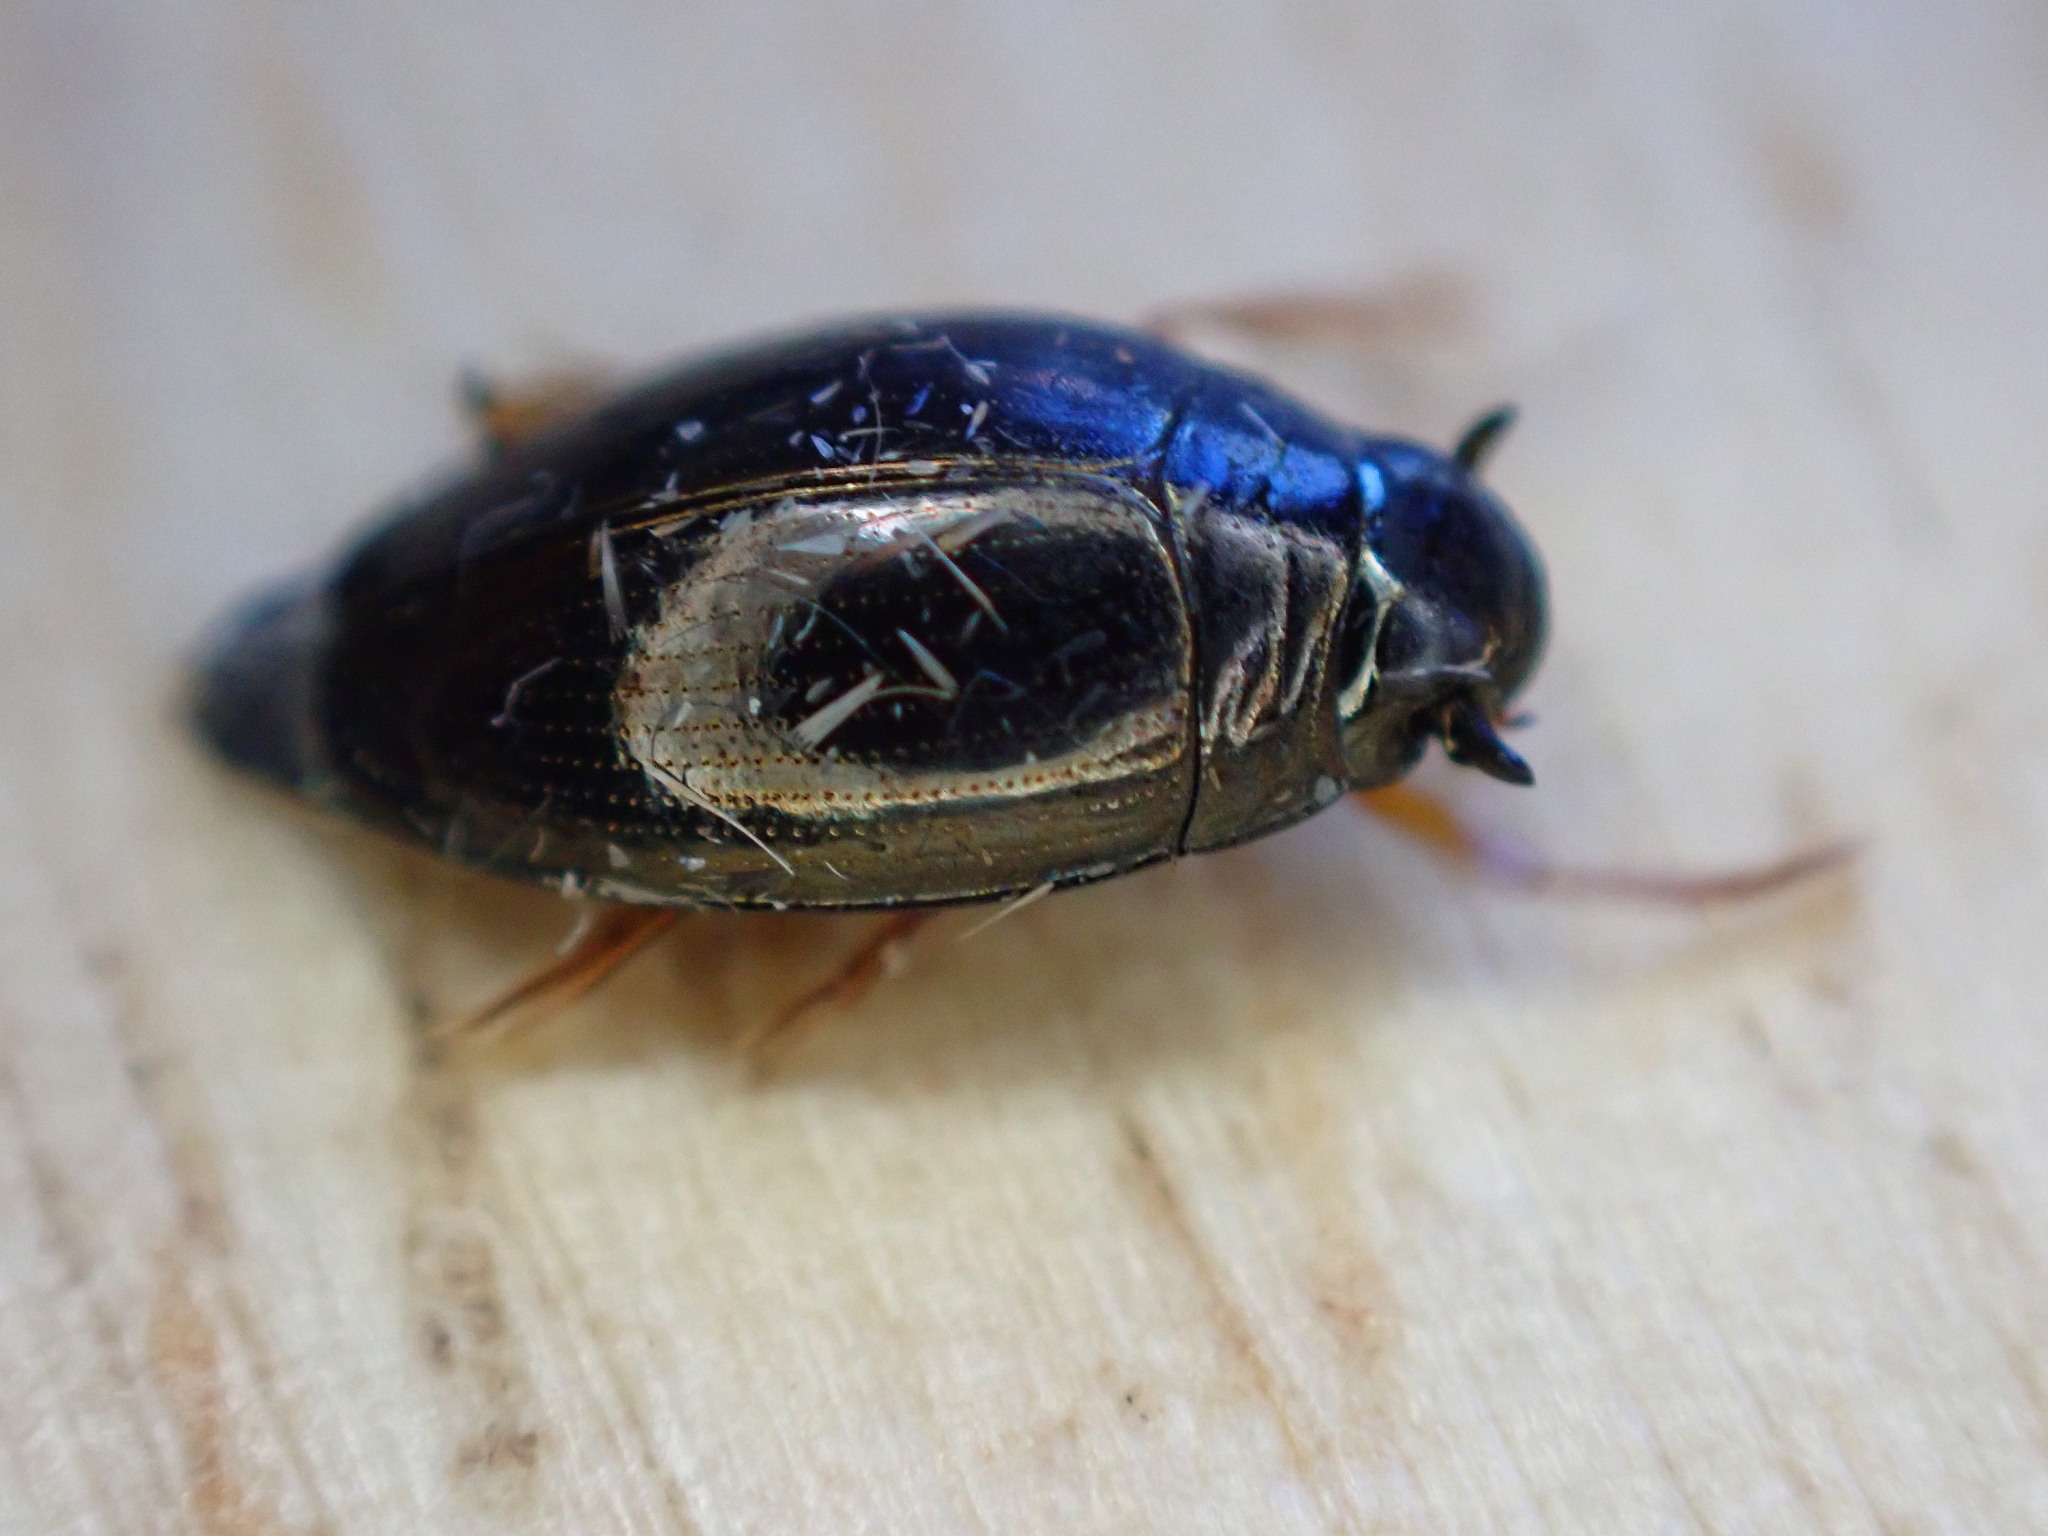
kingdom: Animalia
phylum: Arthropoda
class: Insecta
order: Coleoptera
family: Gyrinidae
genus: Gyrinus
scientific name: Gyrinus
